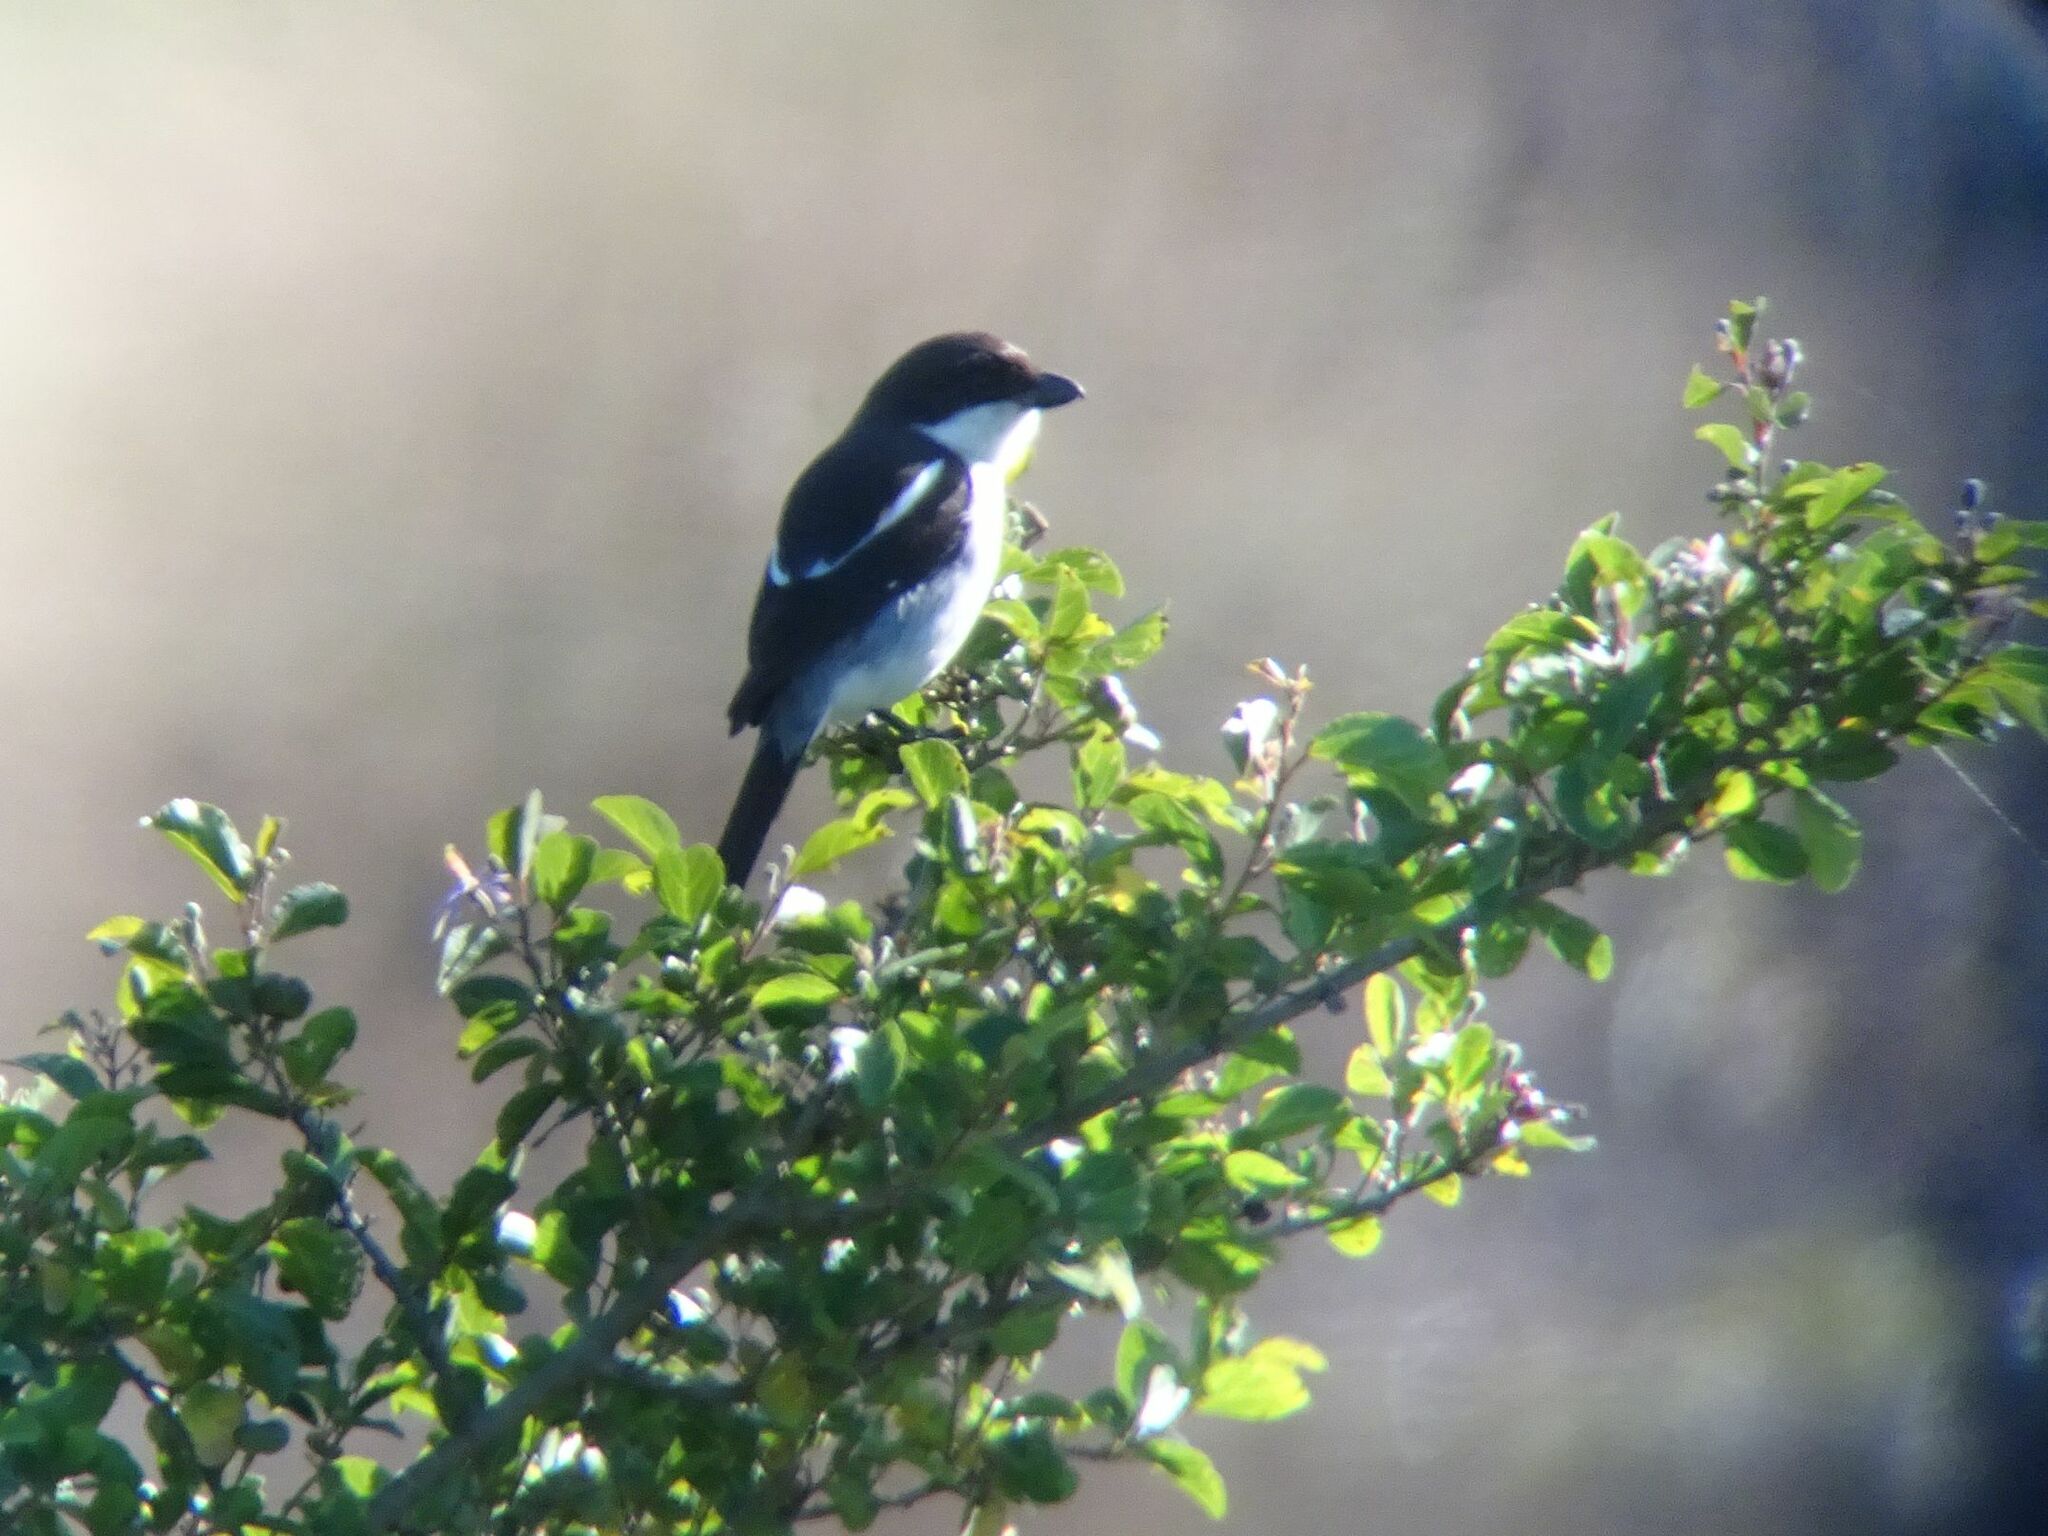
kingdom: Animalia
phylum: Chordata
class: Aves
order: Passeriformes
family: Laniidae
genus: Lanius
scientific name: Lanius collaris
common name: Southern fiscal
